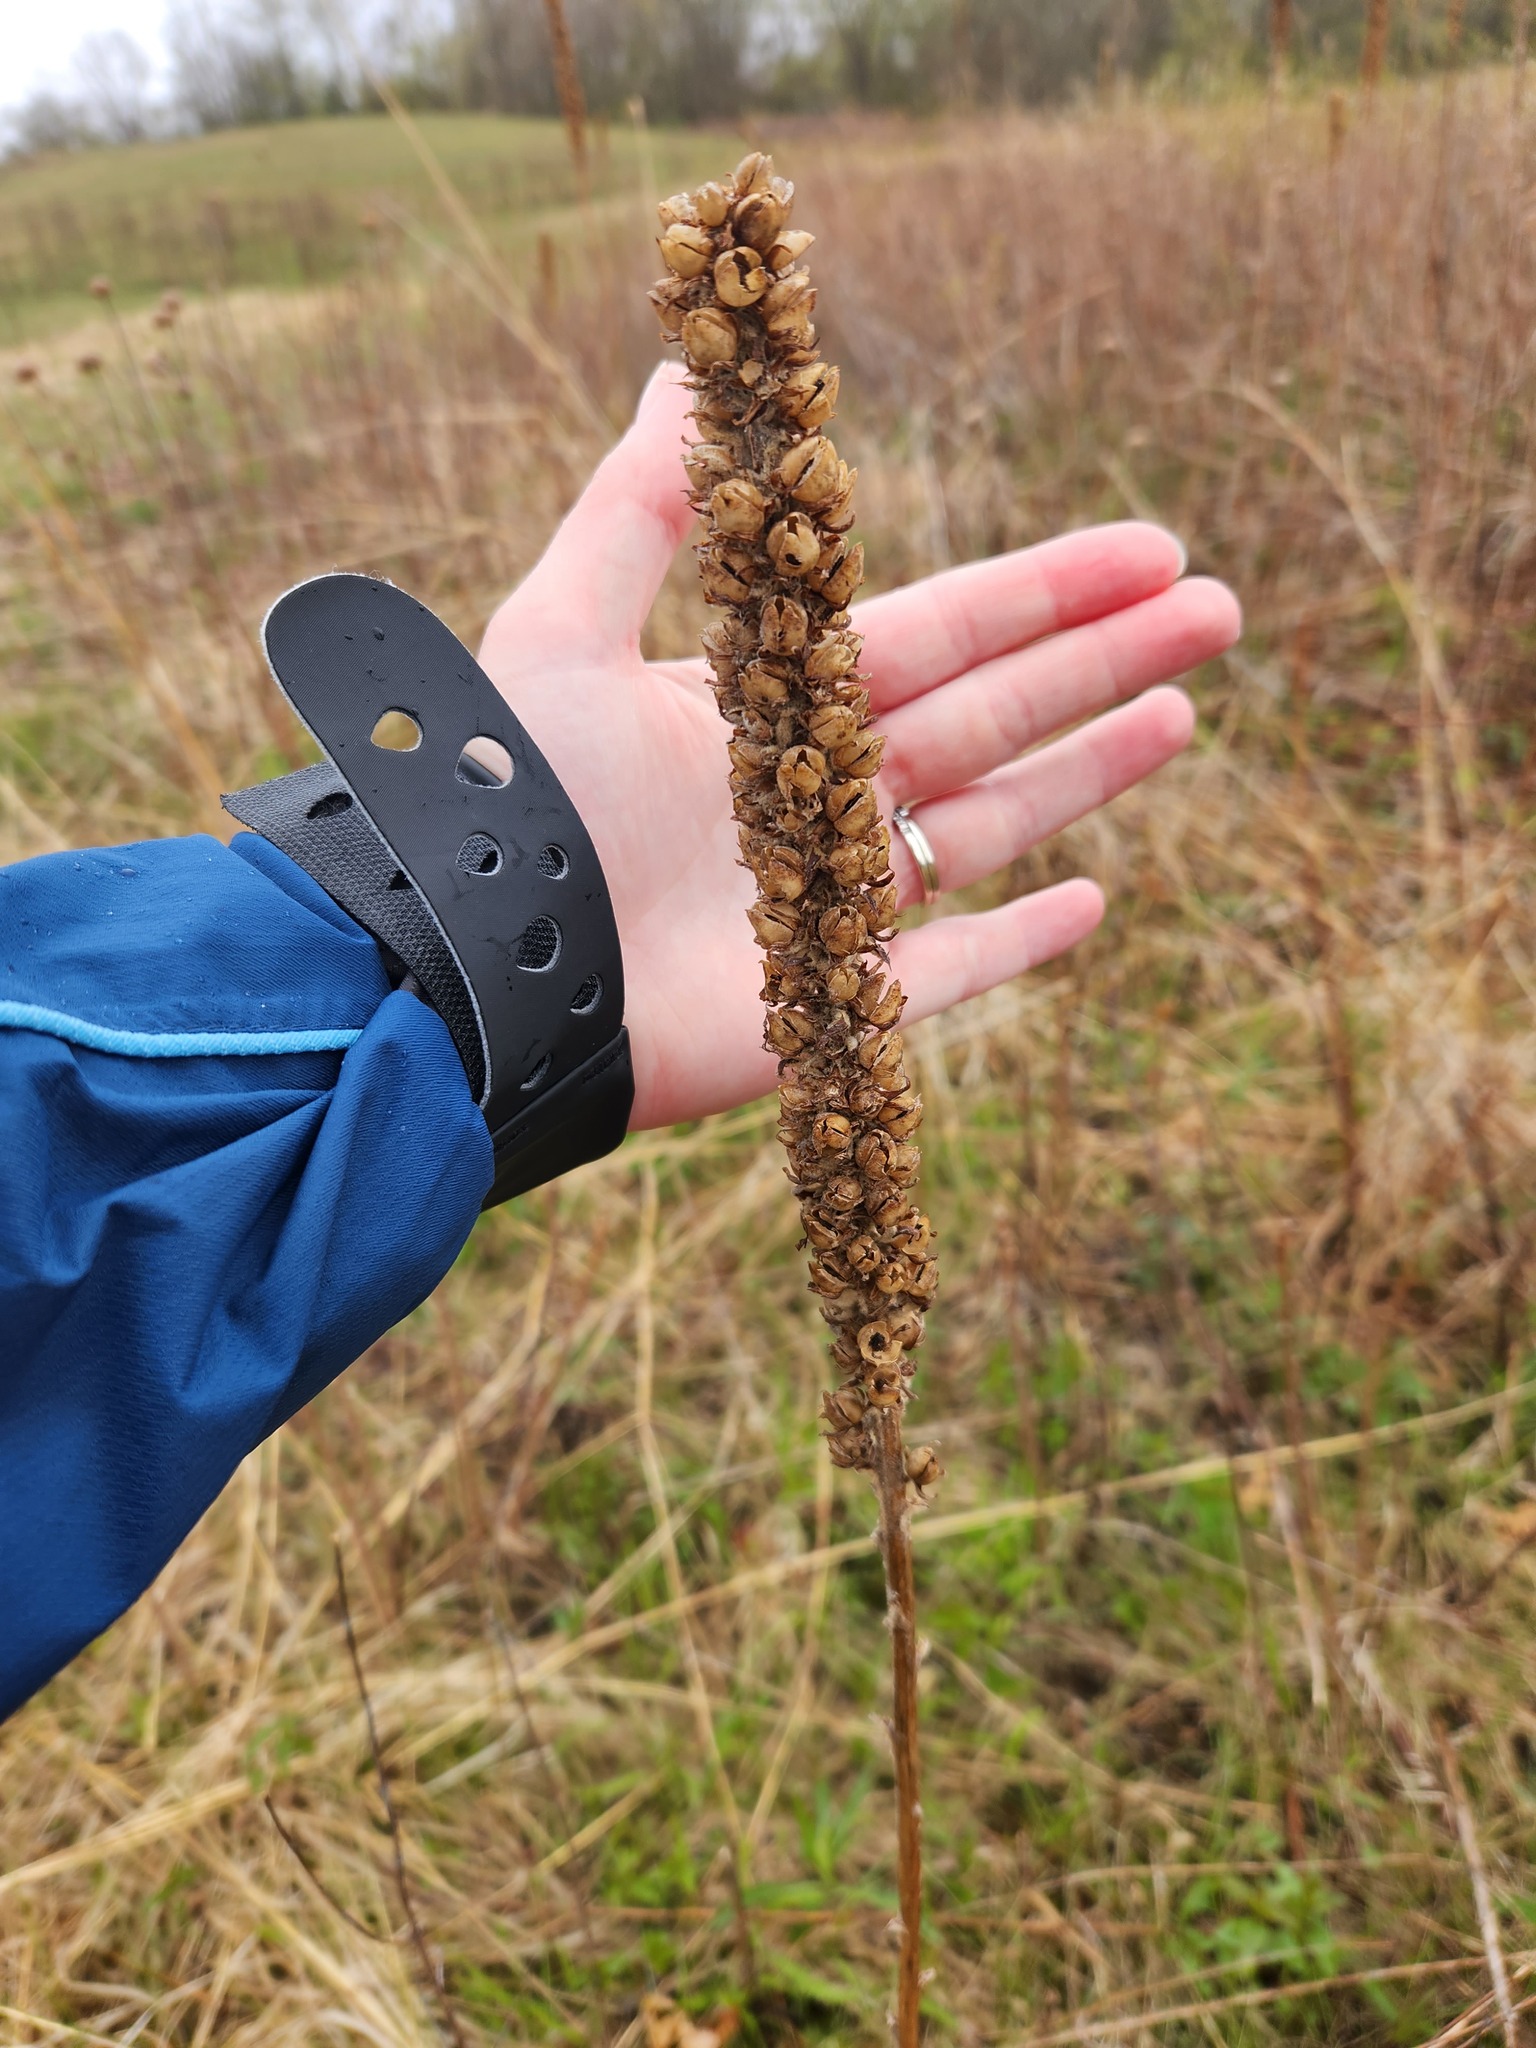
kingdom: Plantae
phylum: Tracheophyta
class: Magnoliopsida
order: Lamiales
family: Scrophulariaceae
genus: Verbascum
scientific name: Verbascum thapsus
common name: Common mullein
